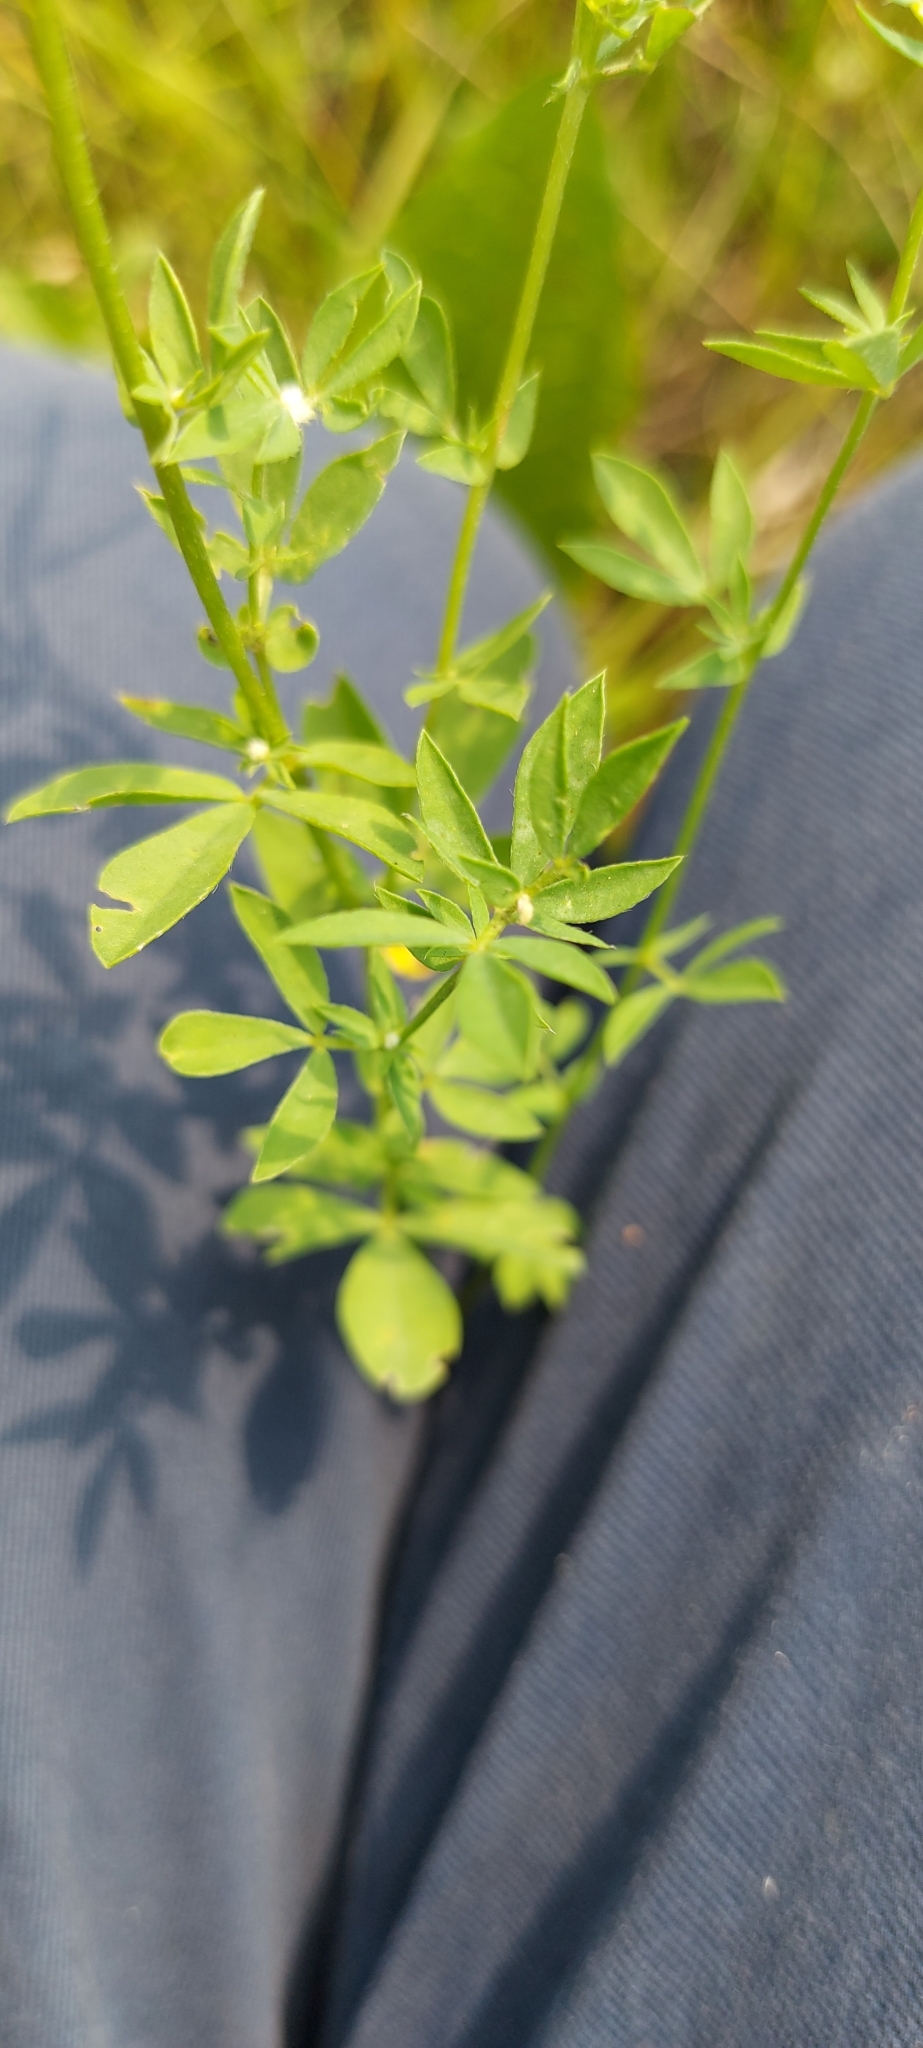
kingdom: Plantae
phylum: Tracheophyta
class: Magnoliopsida
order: Fabales
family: Fabaceae
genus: Lotus
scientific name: Lotus corniculatus
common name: Common bird's-foot-trefoil
